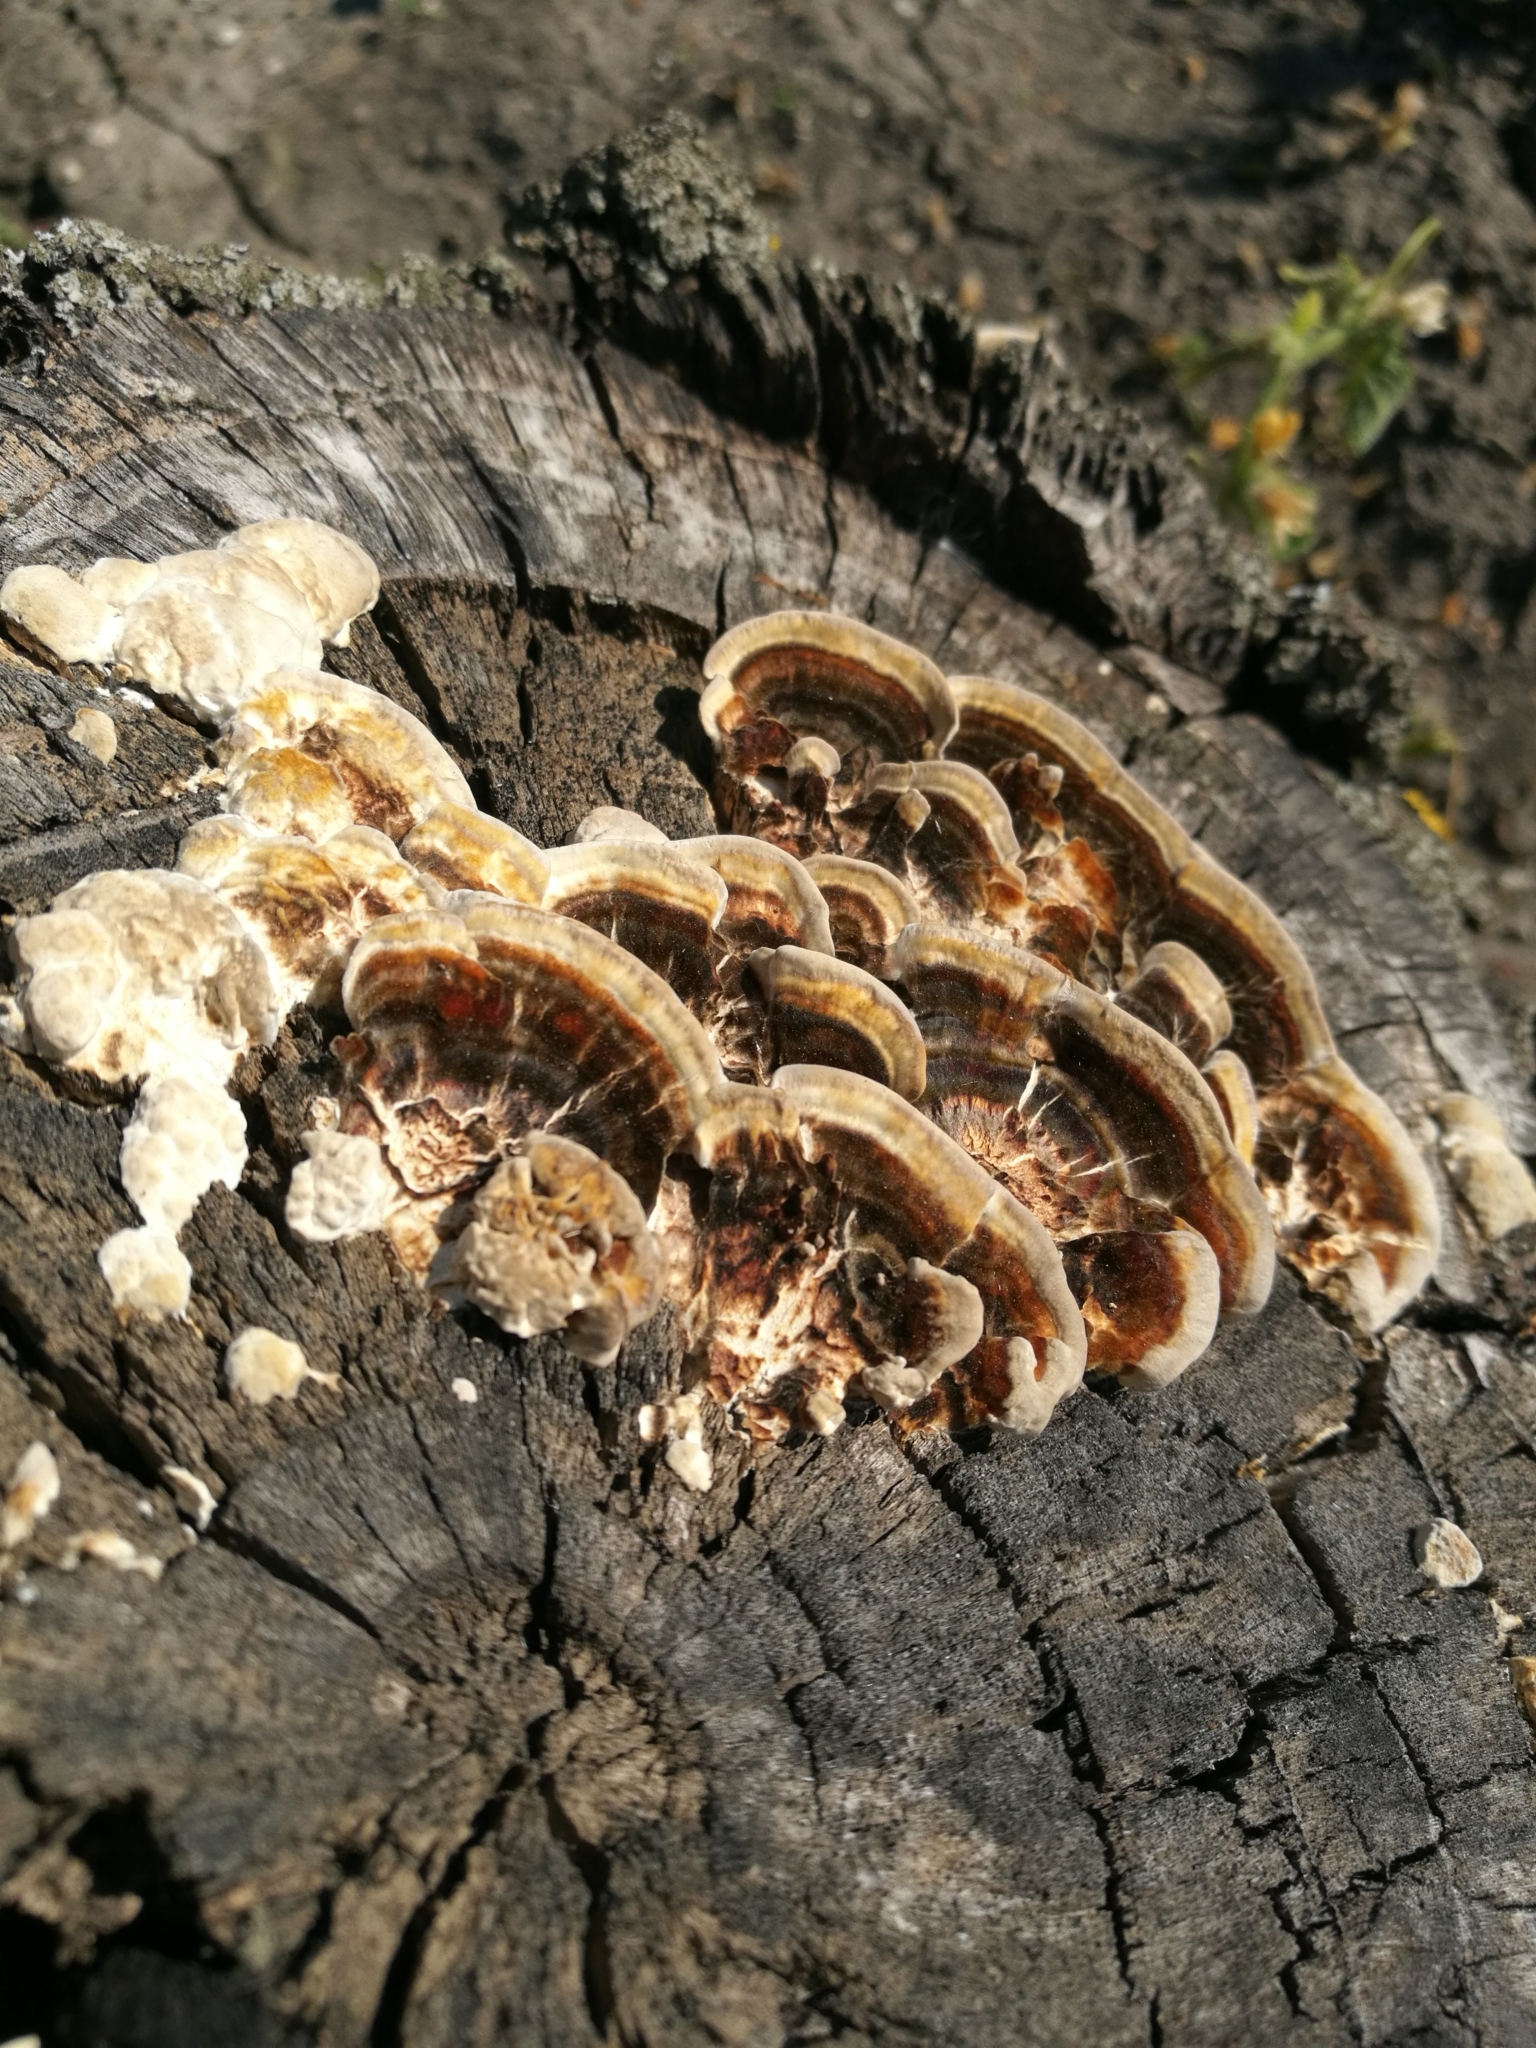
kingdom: Fungi
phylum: Basidiomycota
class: Agaricomycetes
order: Polyporales
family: Polyporaceae
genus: Trametes
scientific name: Trametes versicolor
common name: Turkeytail
